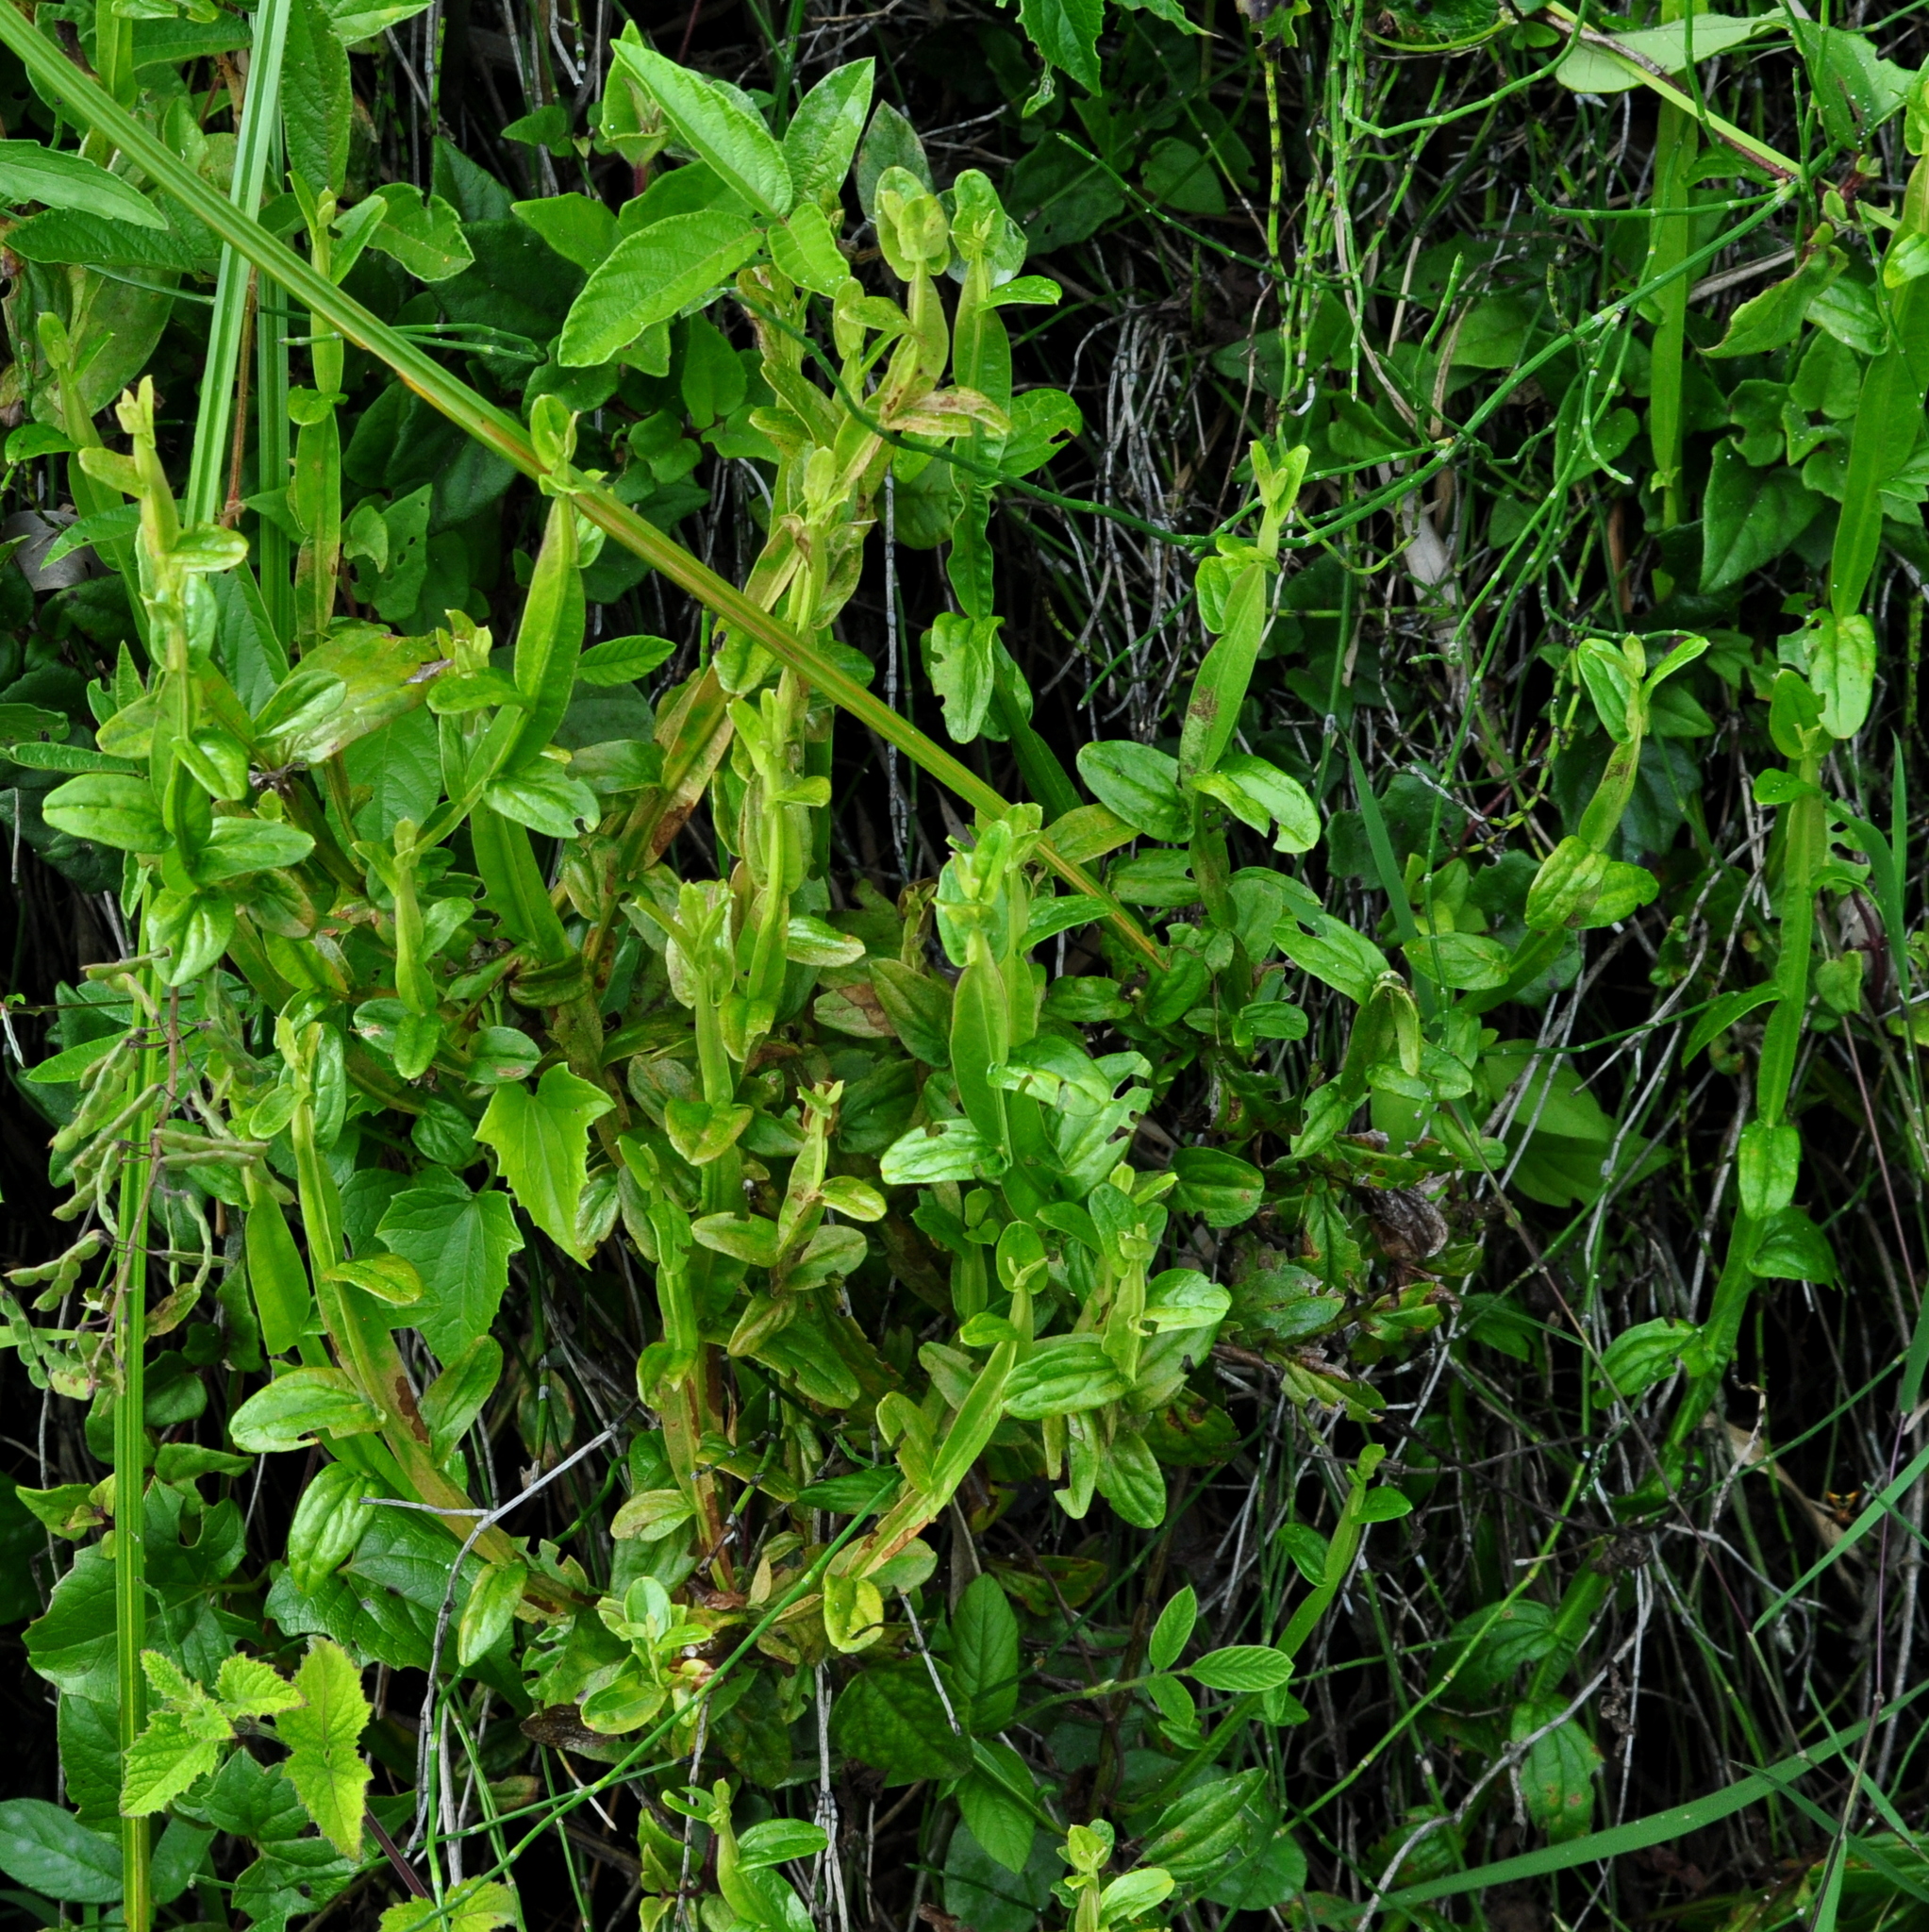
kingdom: Plantae
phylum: Tracheophyta
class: Magnoliopsida
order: Asterales
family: Asteraceae
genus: Baccharis
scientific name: Baccharis junciformis
